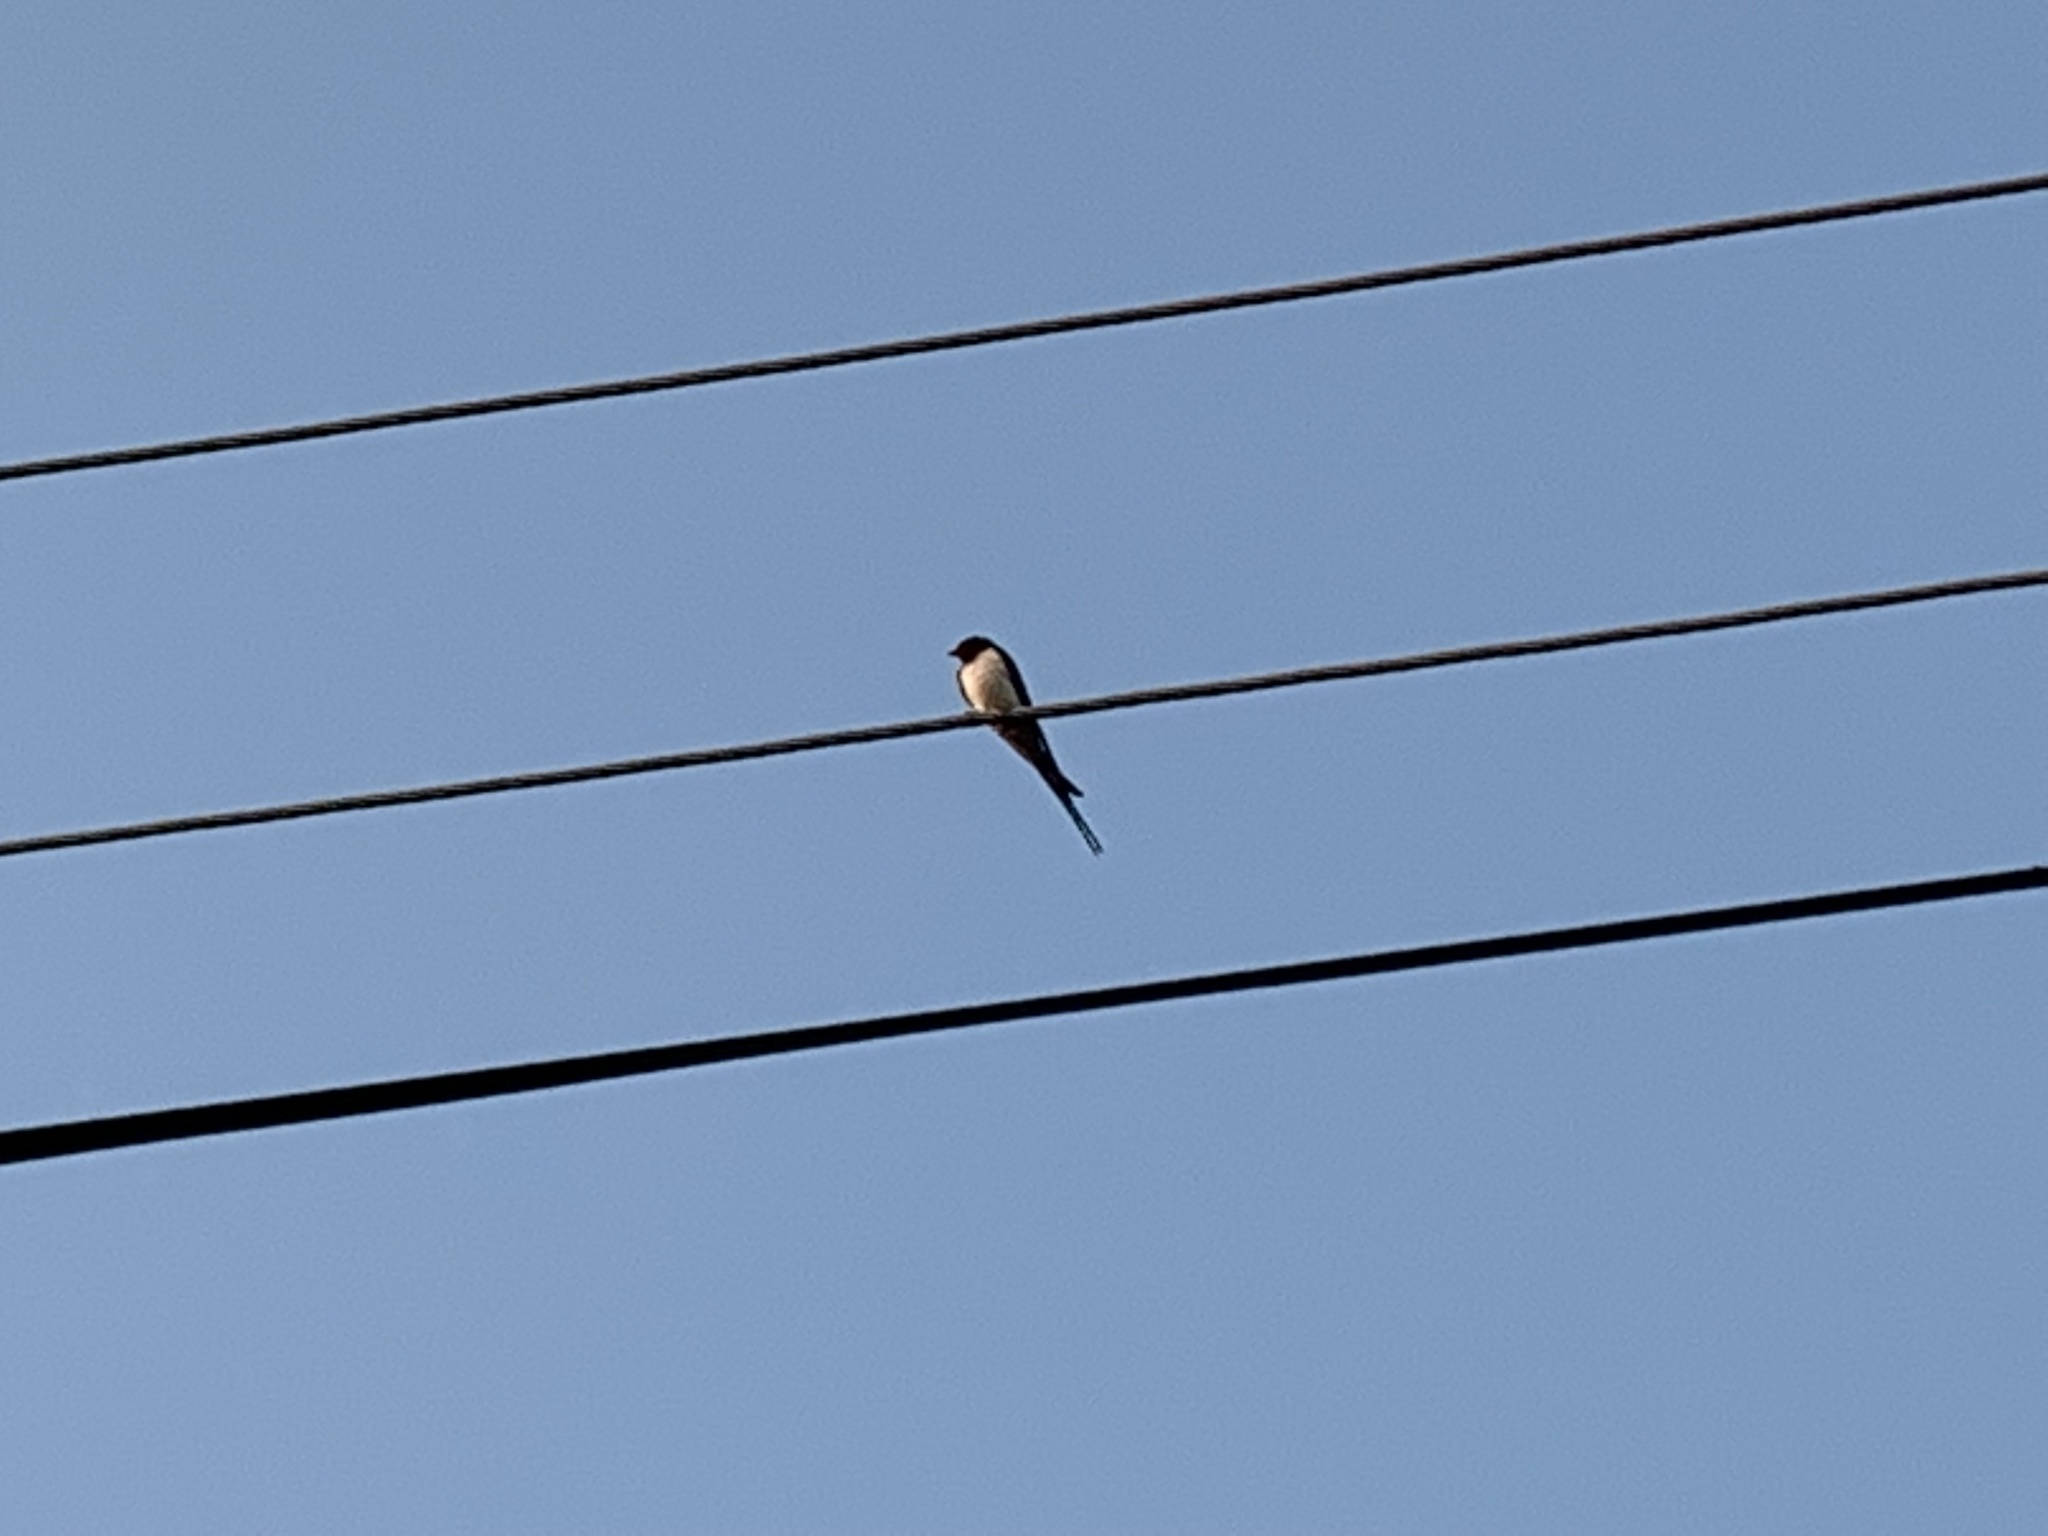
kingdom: Animalia
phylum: Chordata
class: Aves
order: Passeriformes
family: Hirundinidae
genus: Hirundo
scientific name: Hirundo rustica
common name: Barn swallow
